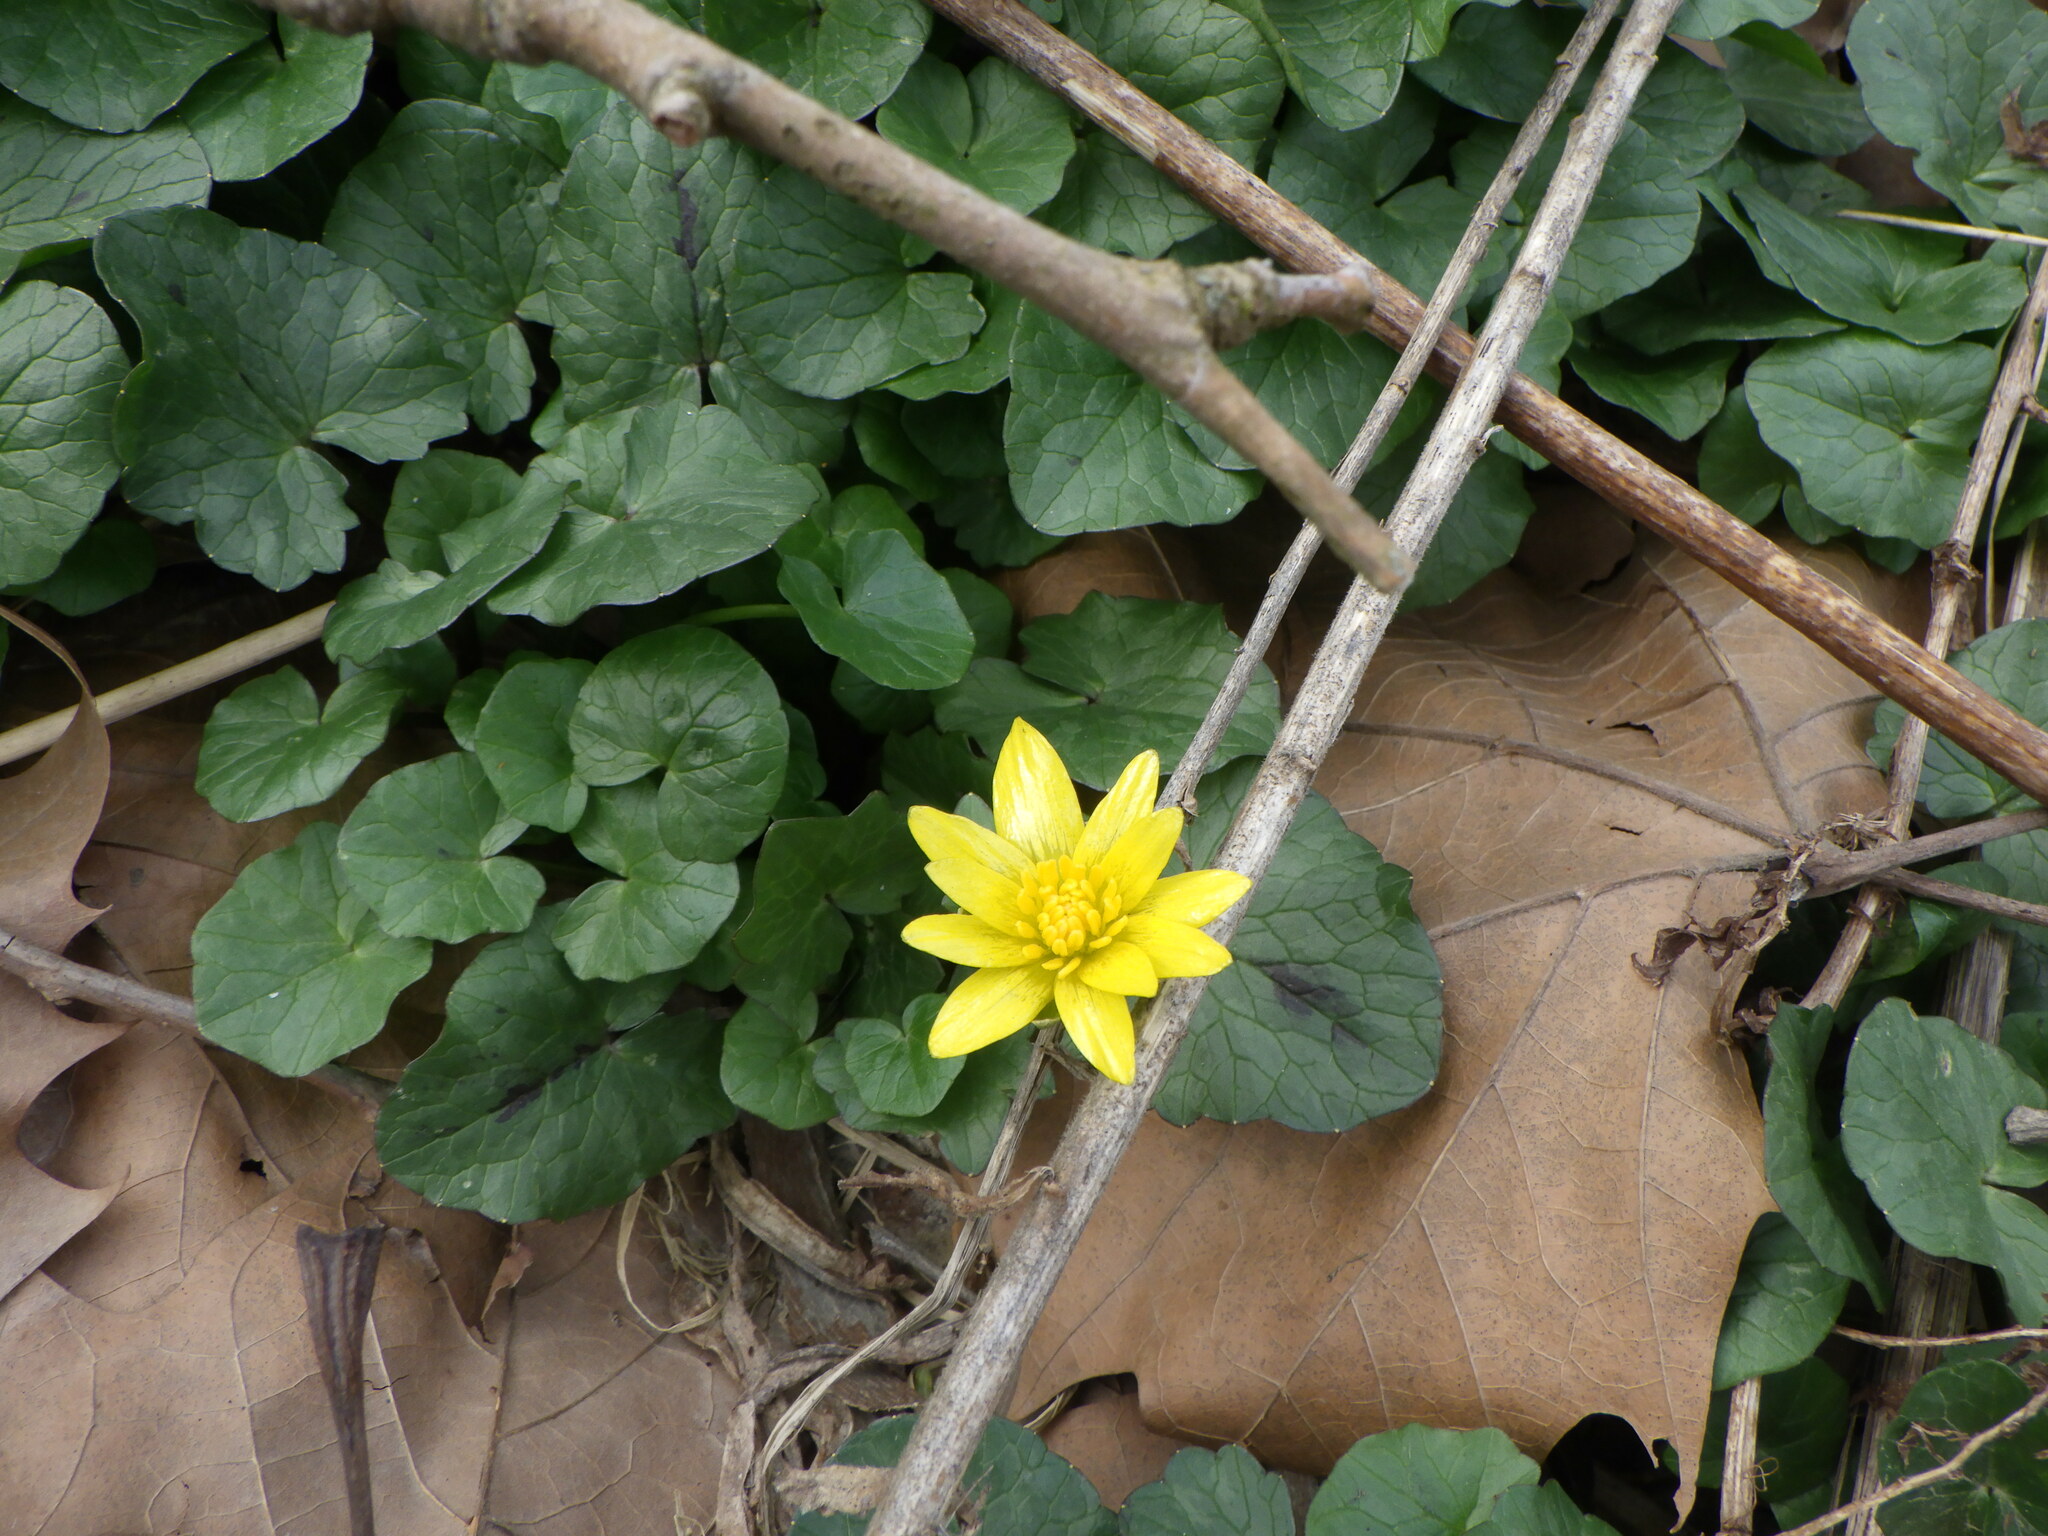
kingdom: Plantae
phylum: Tracheophyta
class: Magnoliopsida
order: Ranunculales
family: Ranunculaceae
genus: Ficaria
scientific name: Ficaria verna
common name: Lesser celandine
